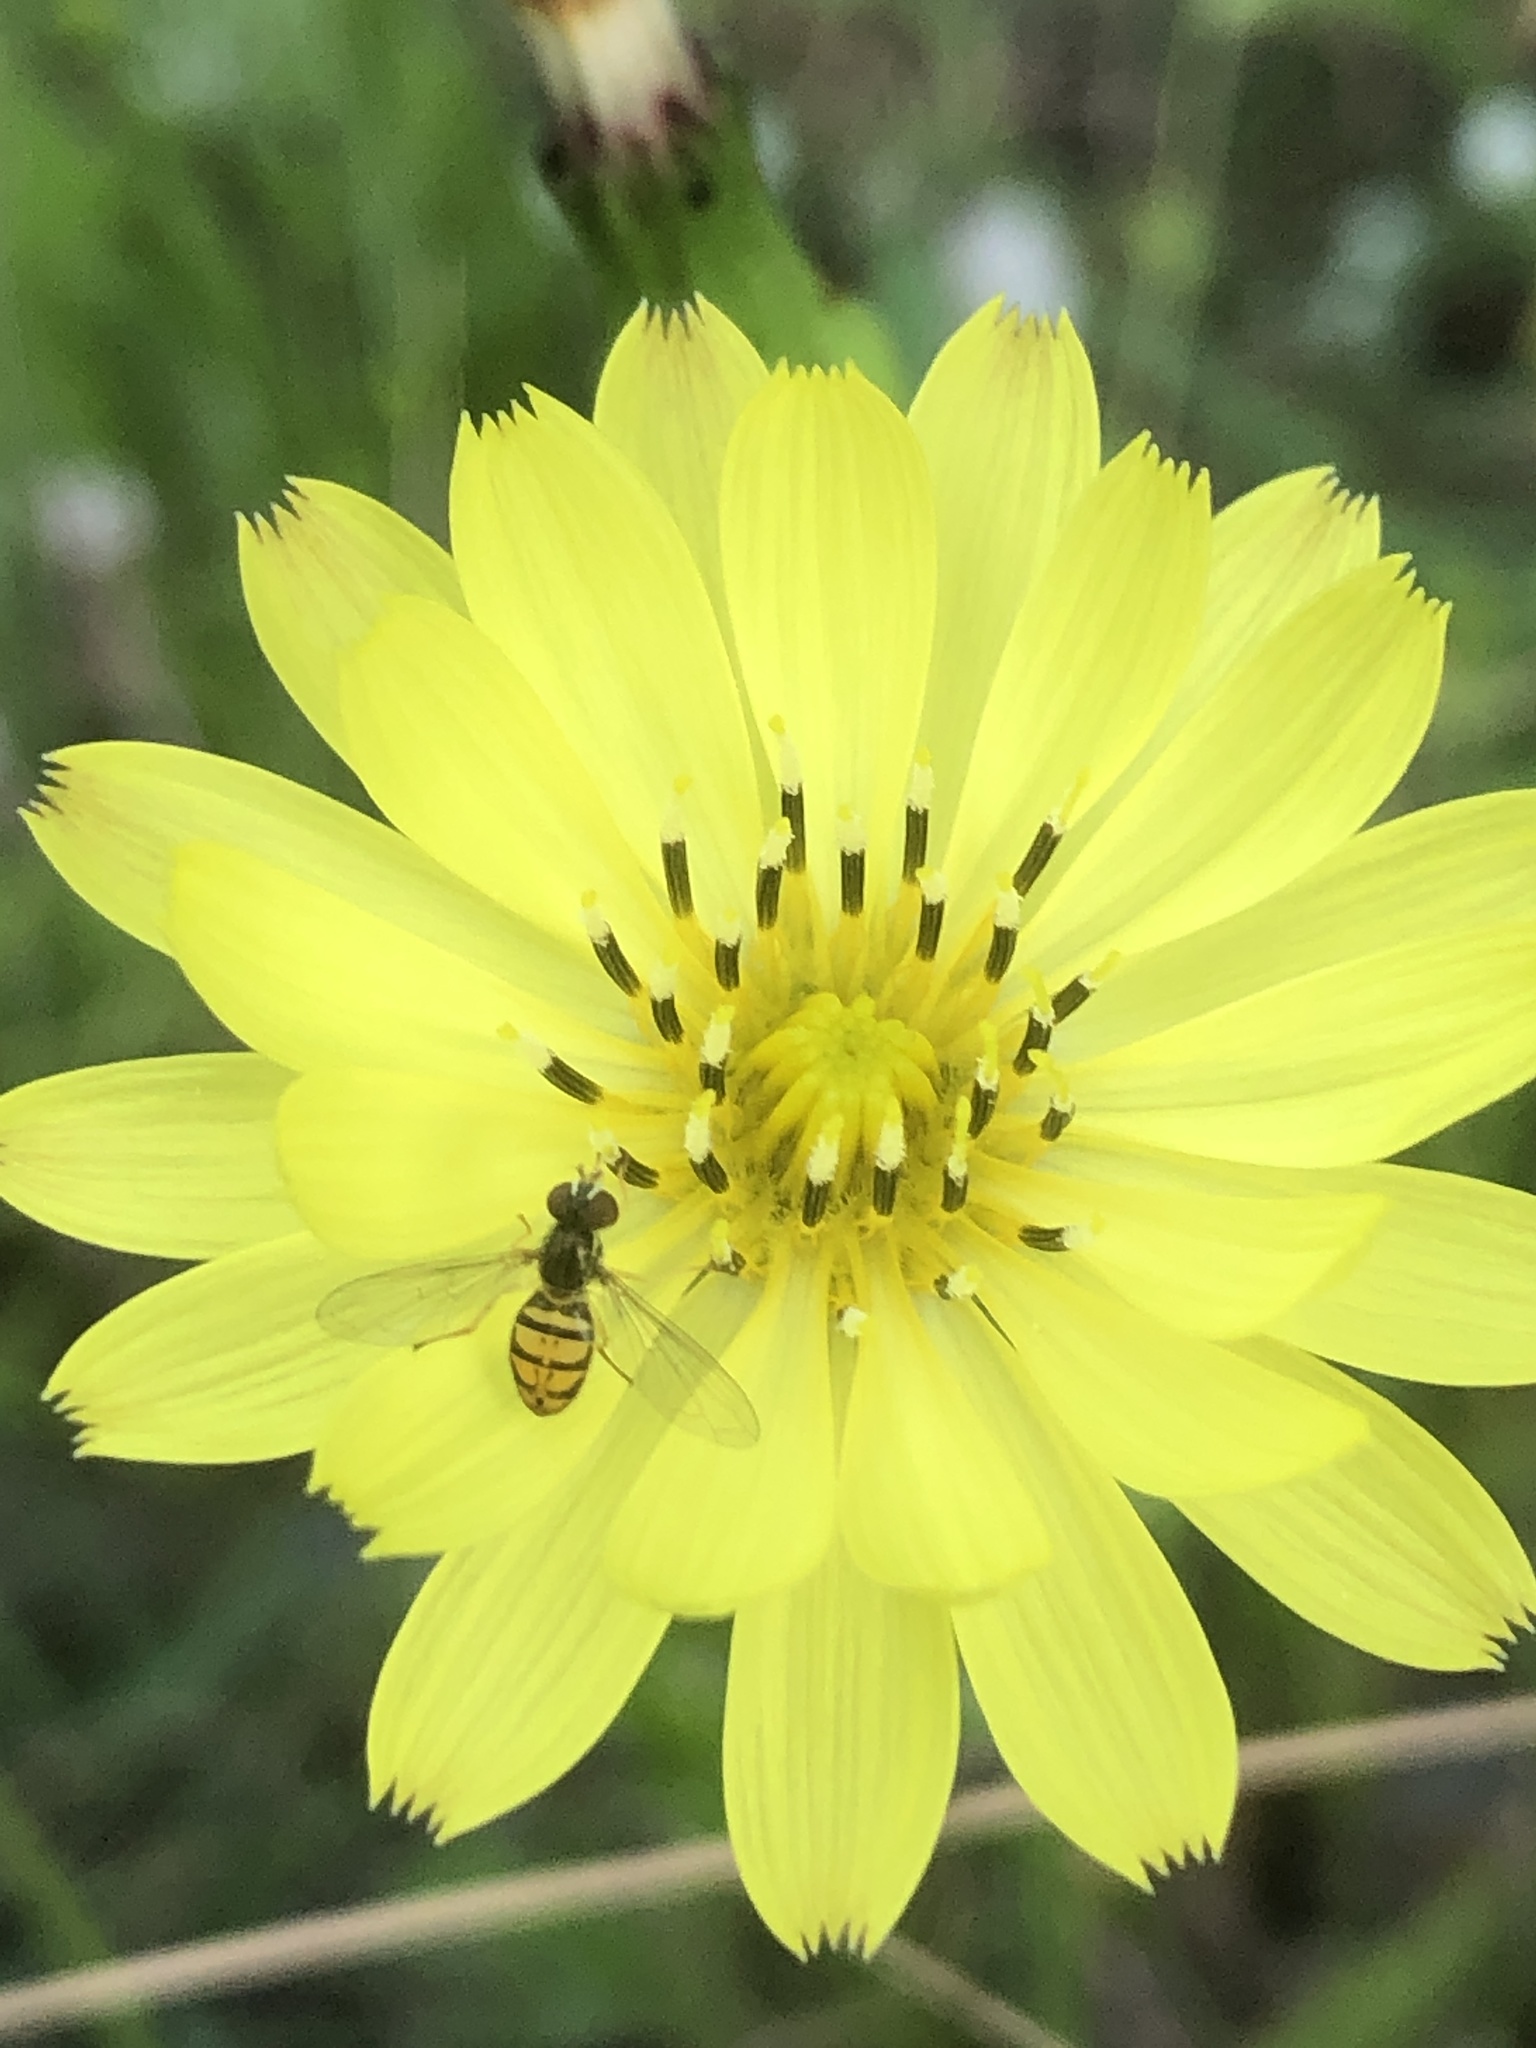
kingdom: Animalia
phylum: Arthropoda
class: Insecta
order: Diptera
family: Syrphidae
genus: Toxomerus
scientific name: Toxomerus marginatus
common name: Syrphid fly
